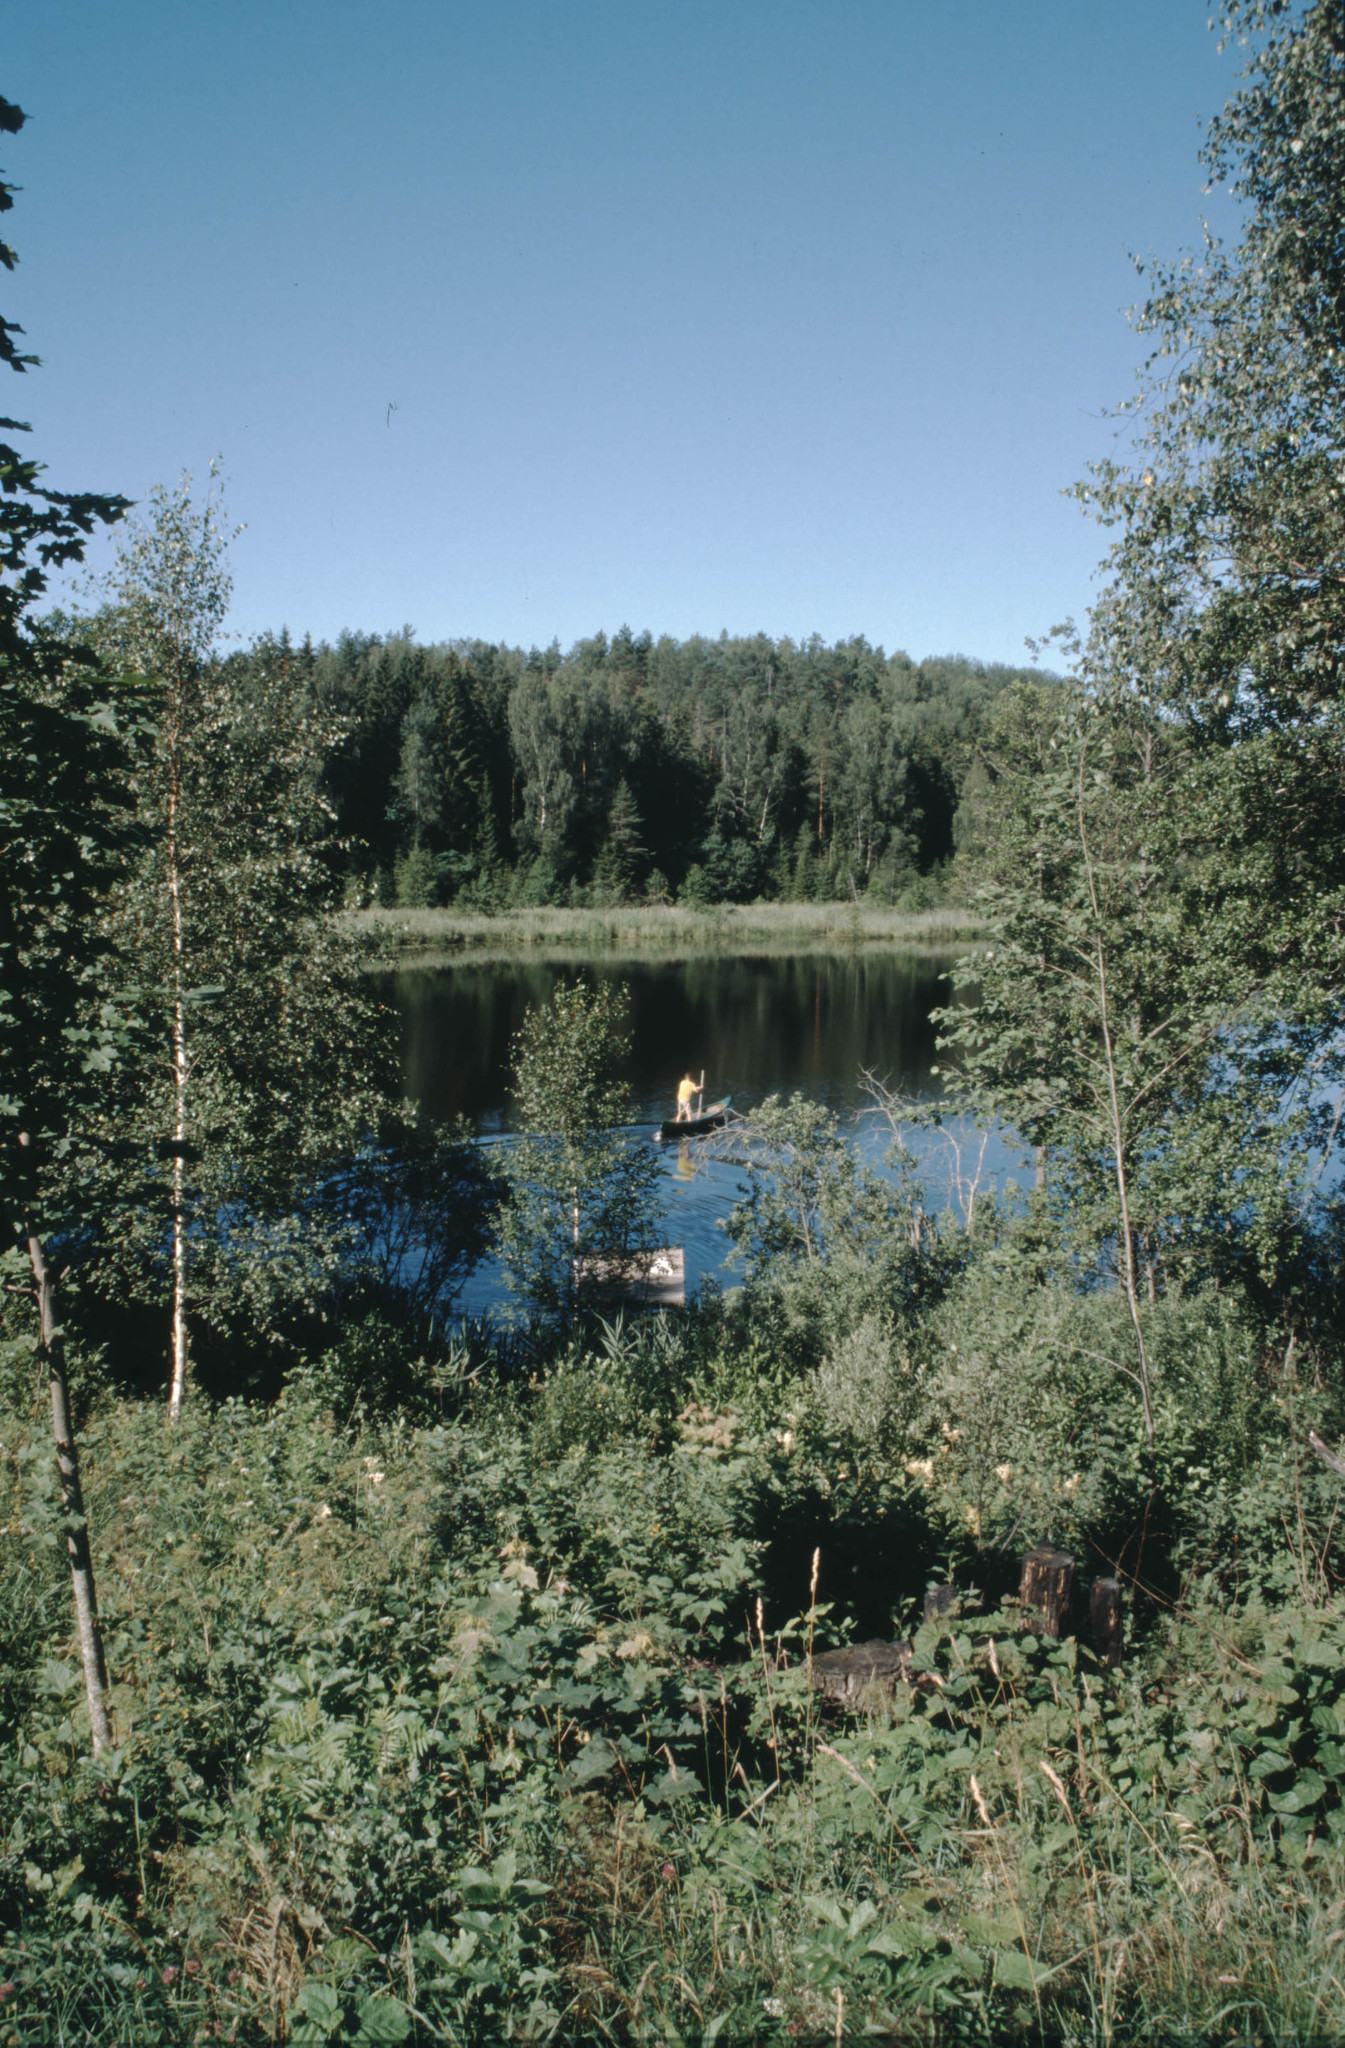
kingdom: Plantae
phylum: Tracheophyta
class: Magnoliopsida
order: Sapindales
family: Sapindaceae
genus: Acer
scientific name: Acer pseudoplatanus
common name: Sycamore
